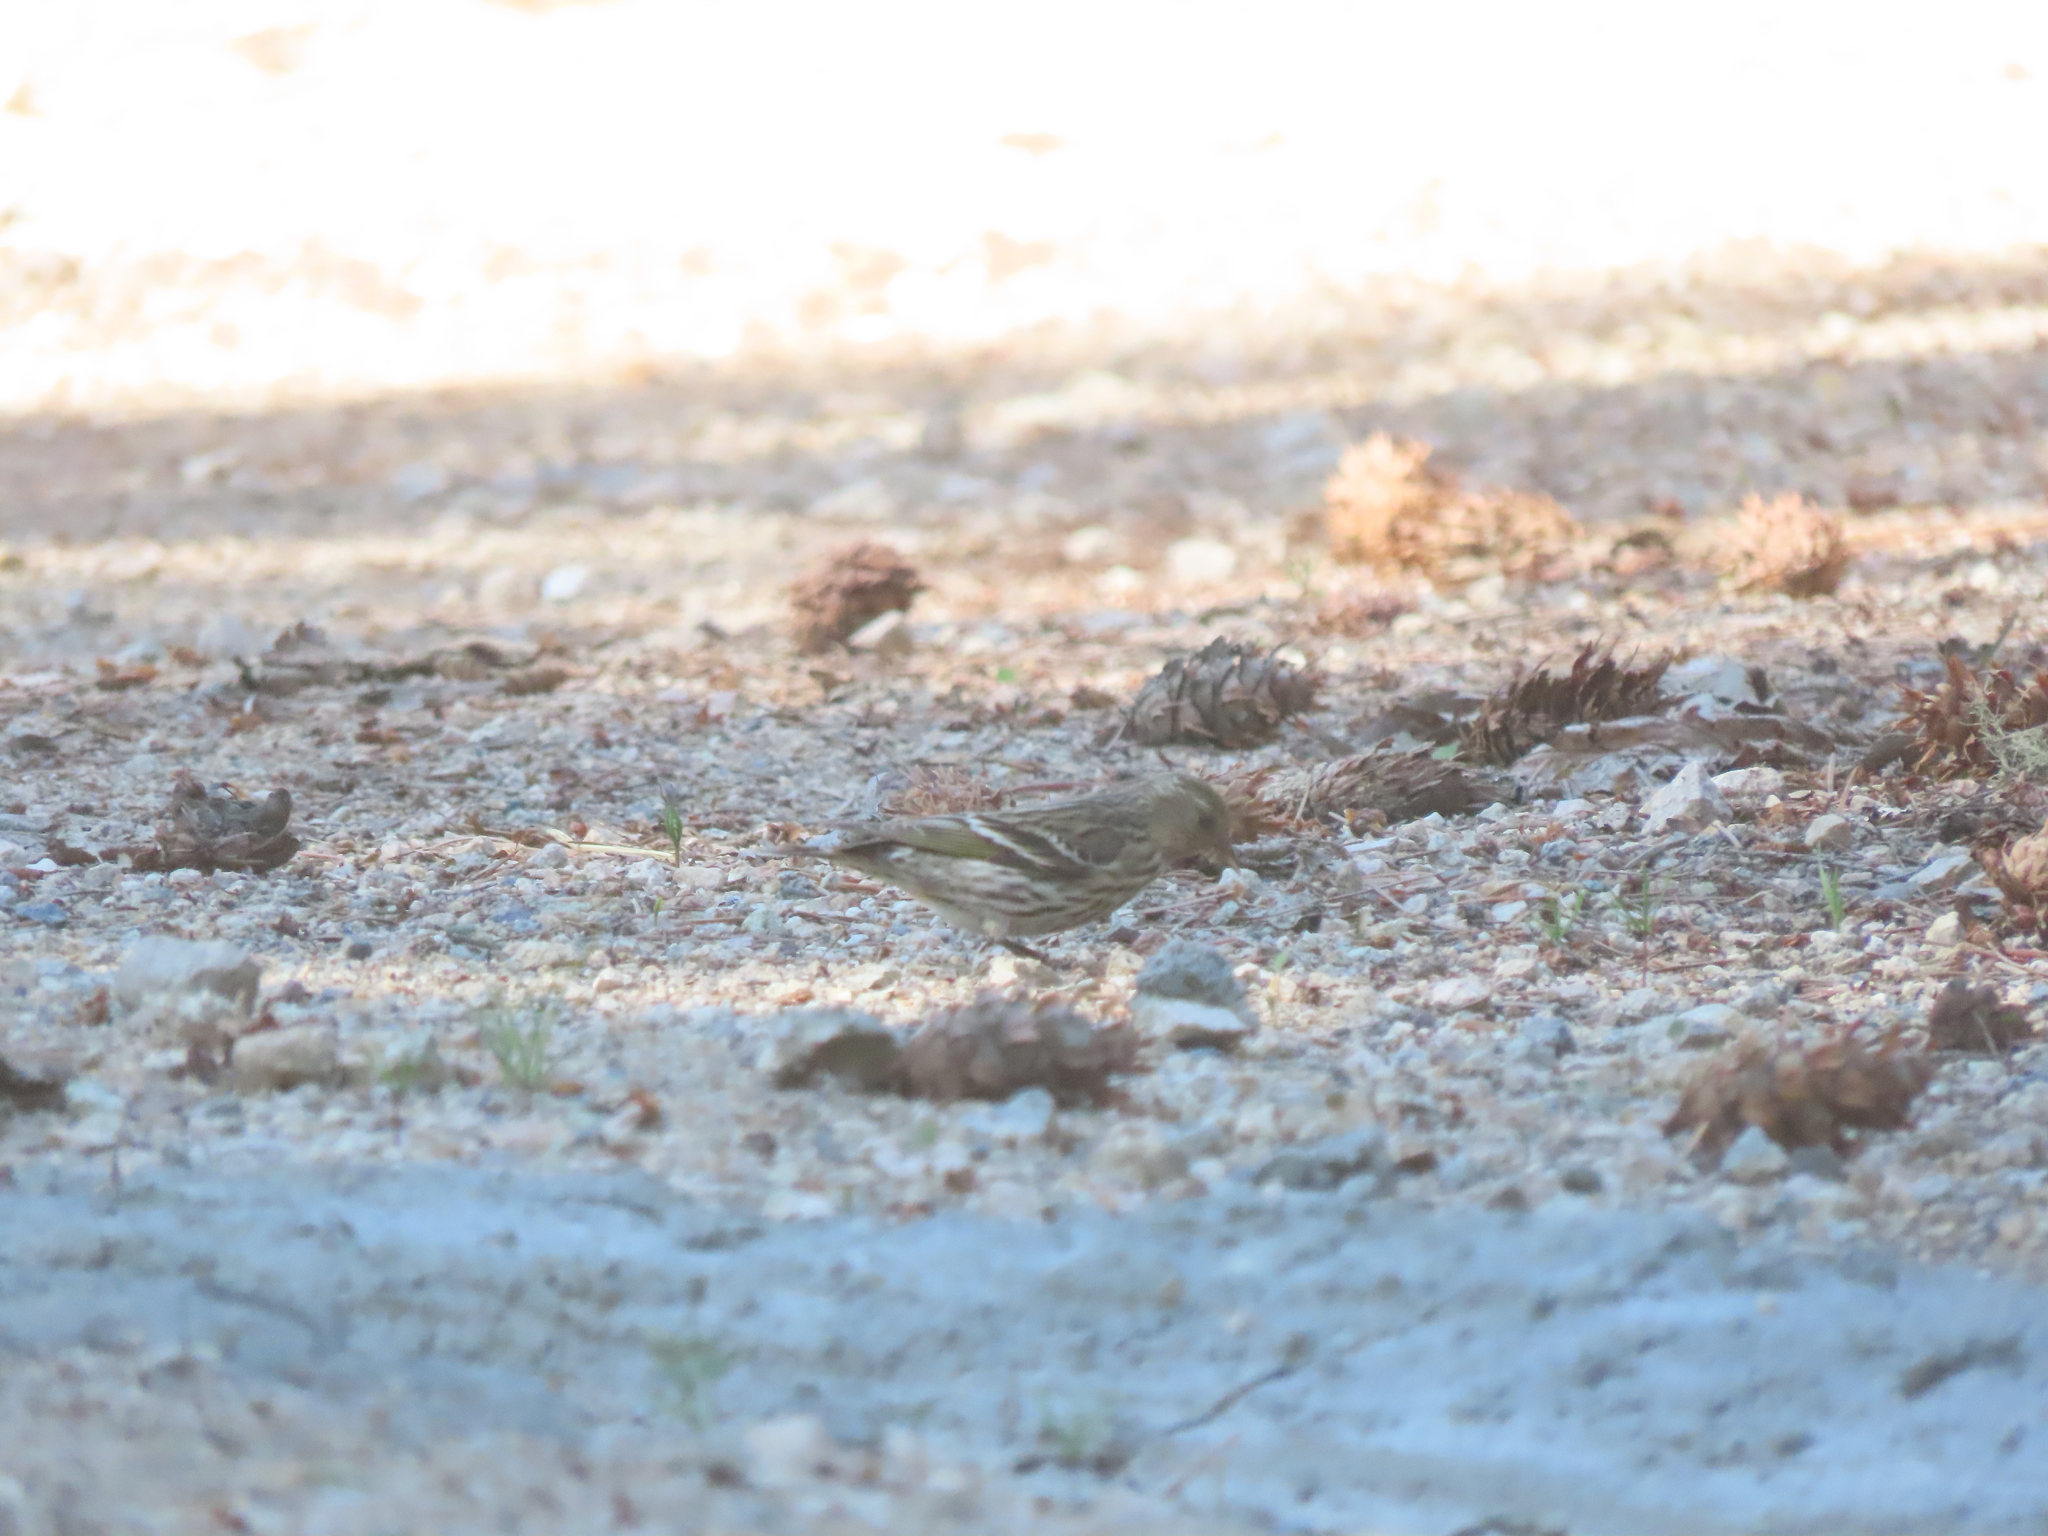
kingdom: Animalia
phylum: Chordata
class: Aves
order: Passeriformes
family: Fringillidae
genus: Spinus
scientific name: Spinus pinus
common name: Pine siskin
